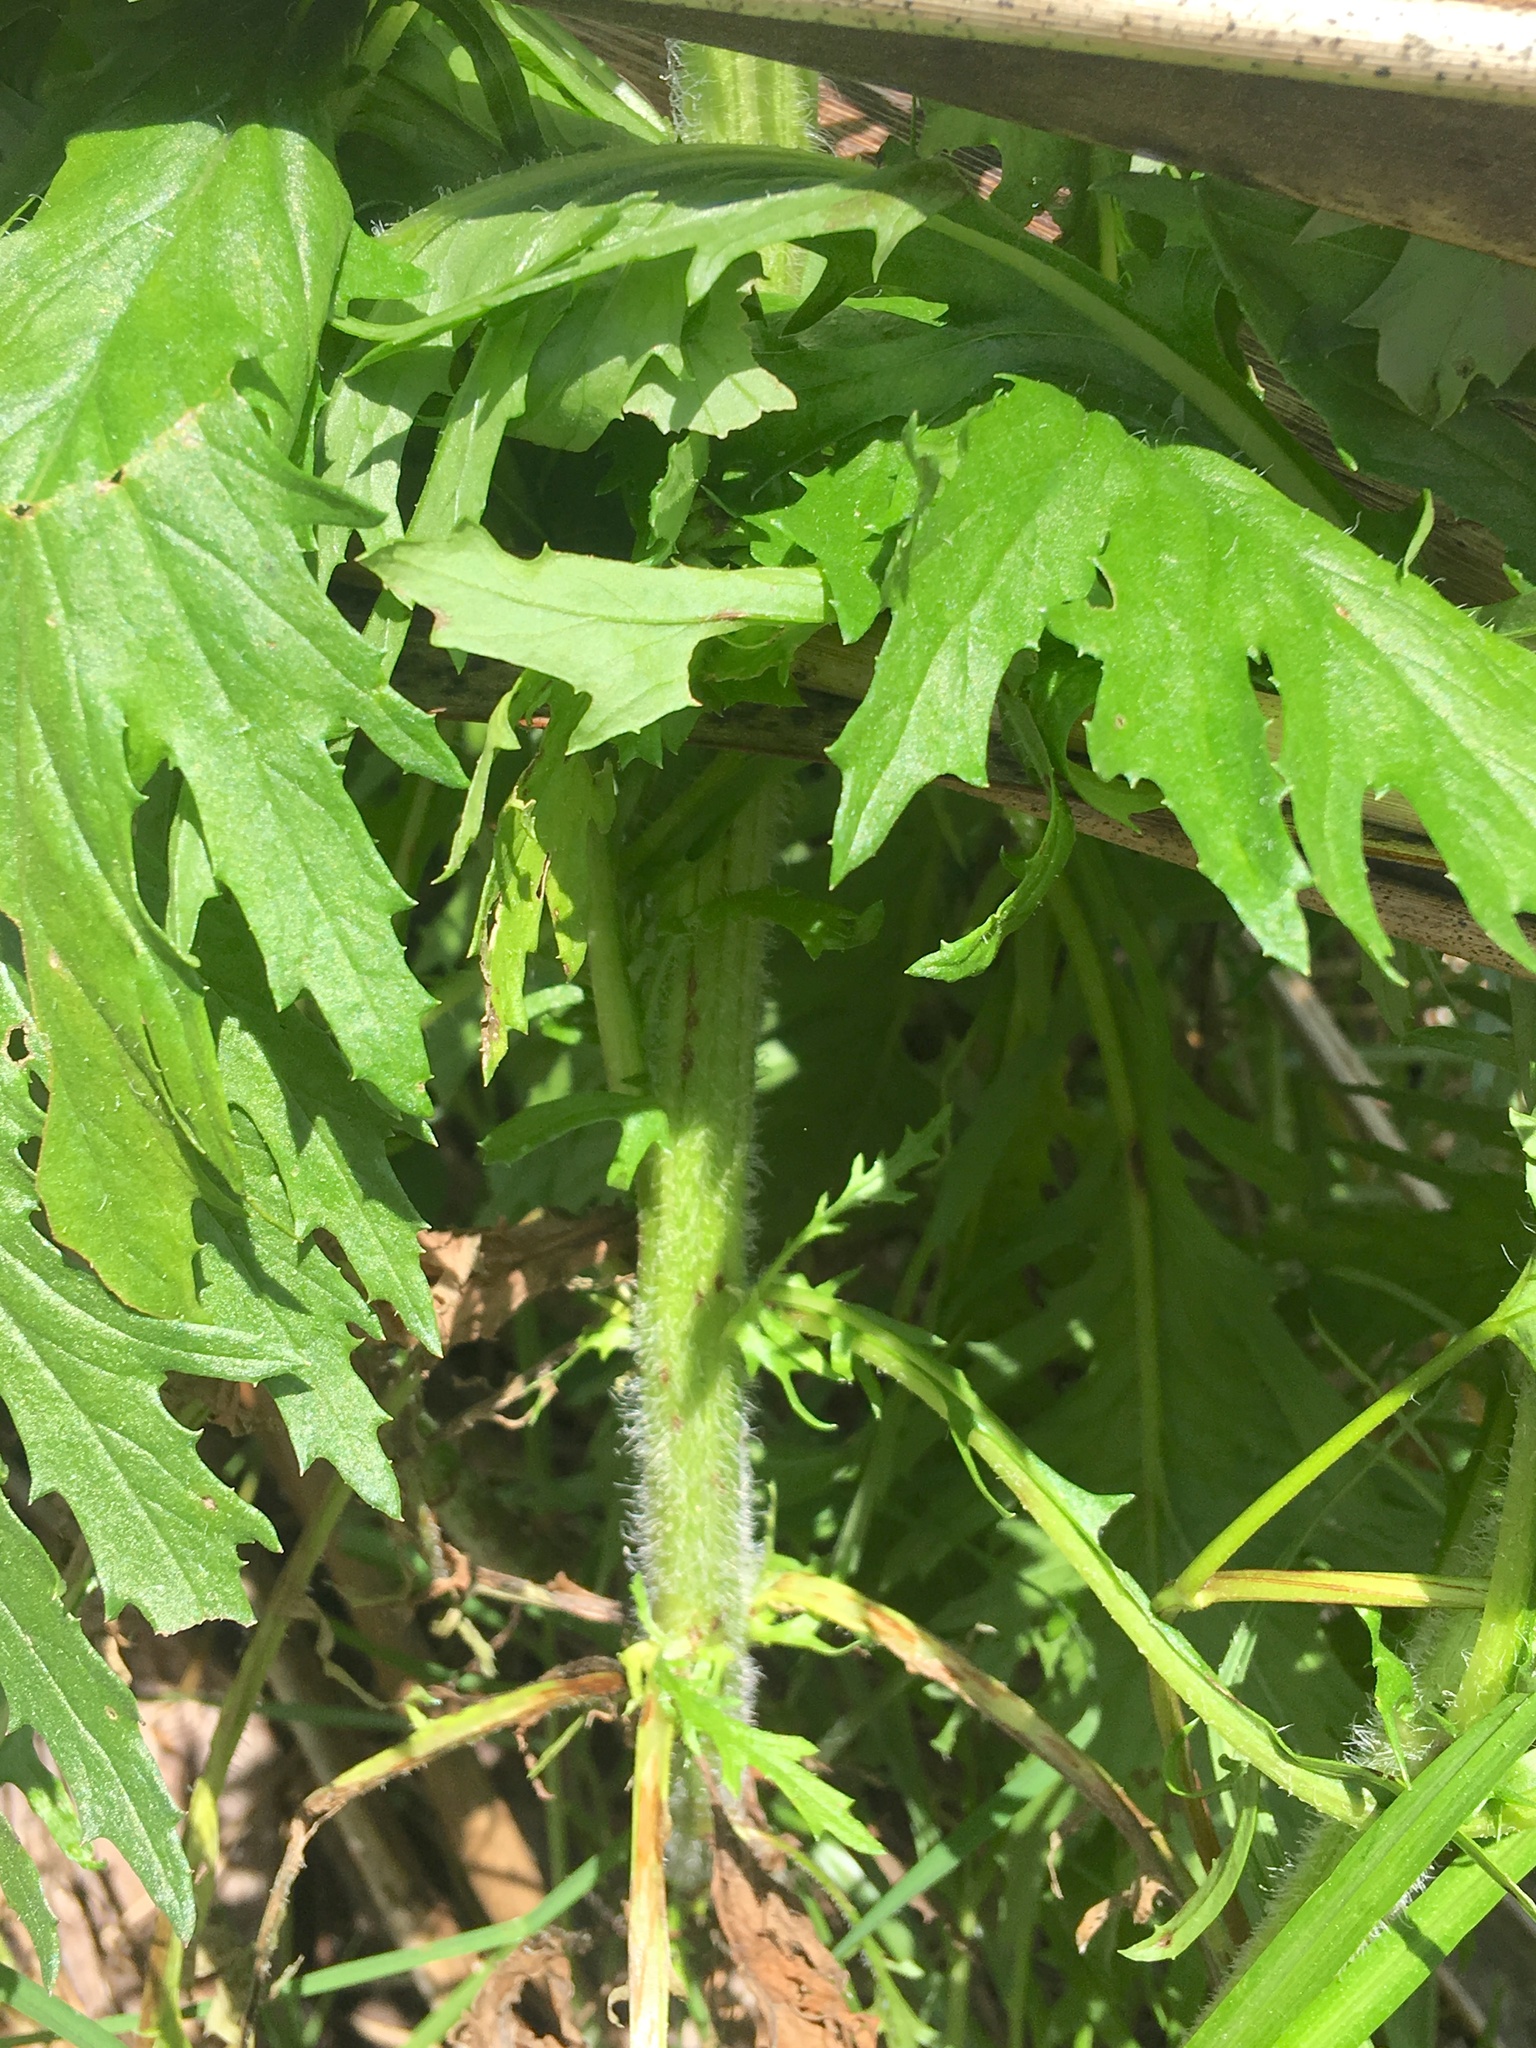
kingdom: Plantae
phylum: Tracheophyta
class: Magnoliopsida
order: Asterales
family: Asteraceae
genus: Senecio
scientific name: Senecio esleri
